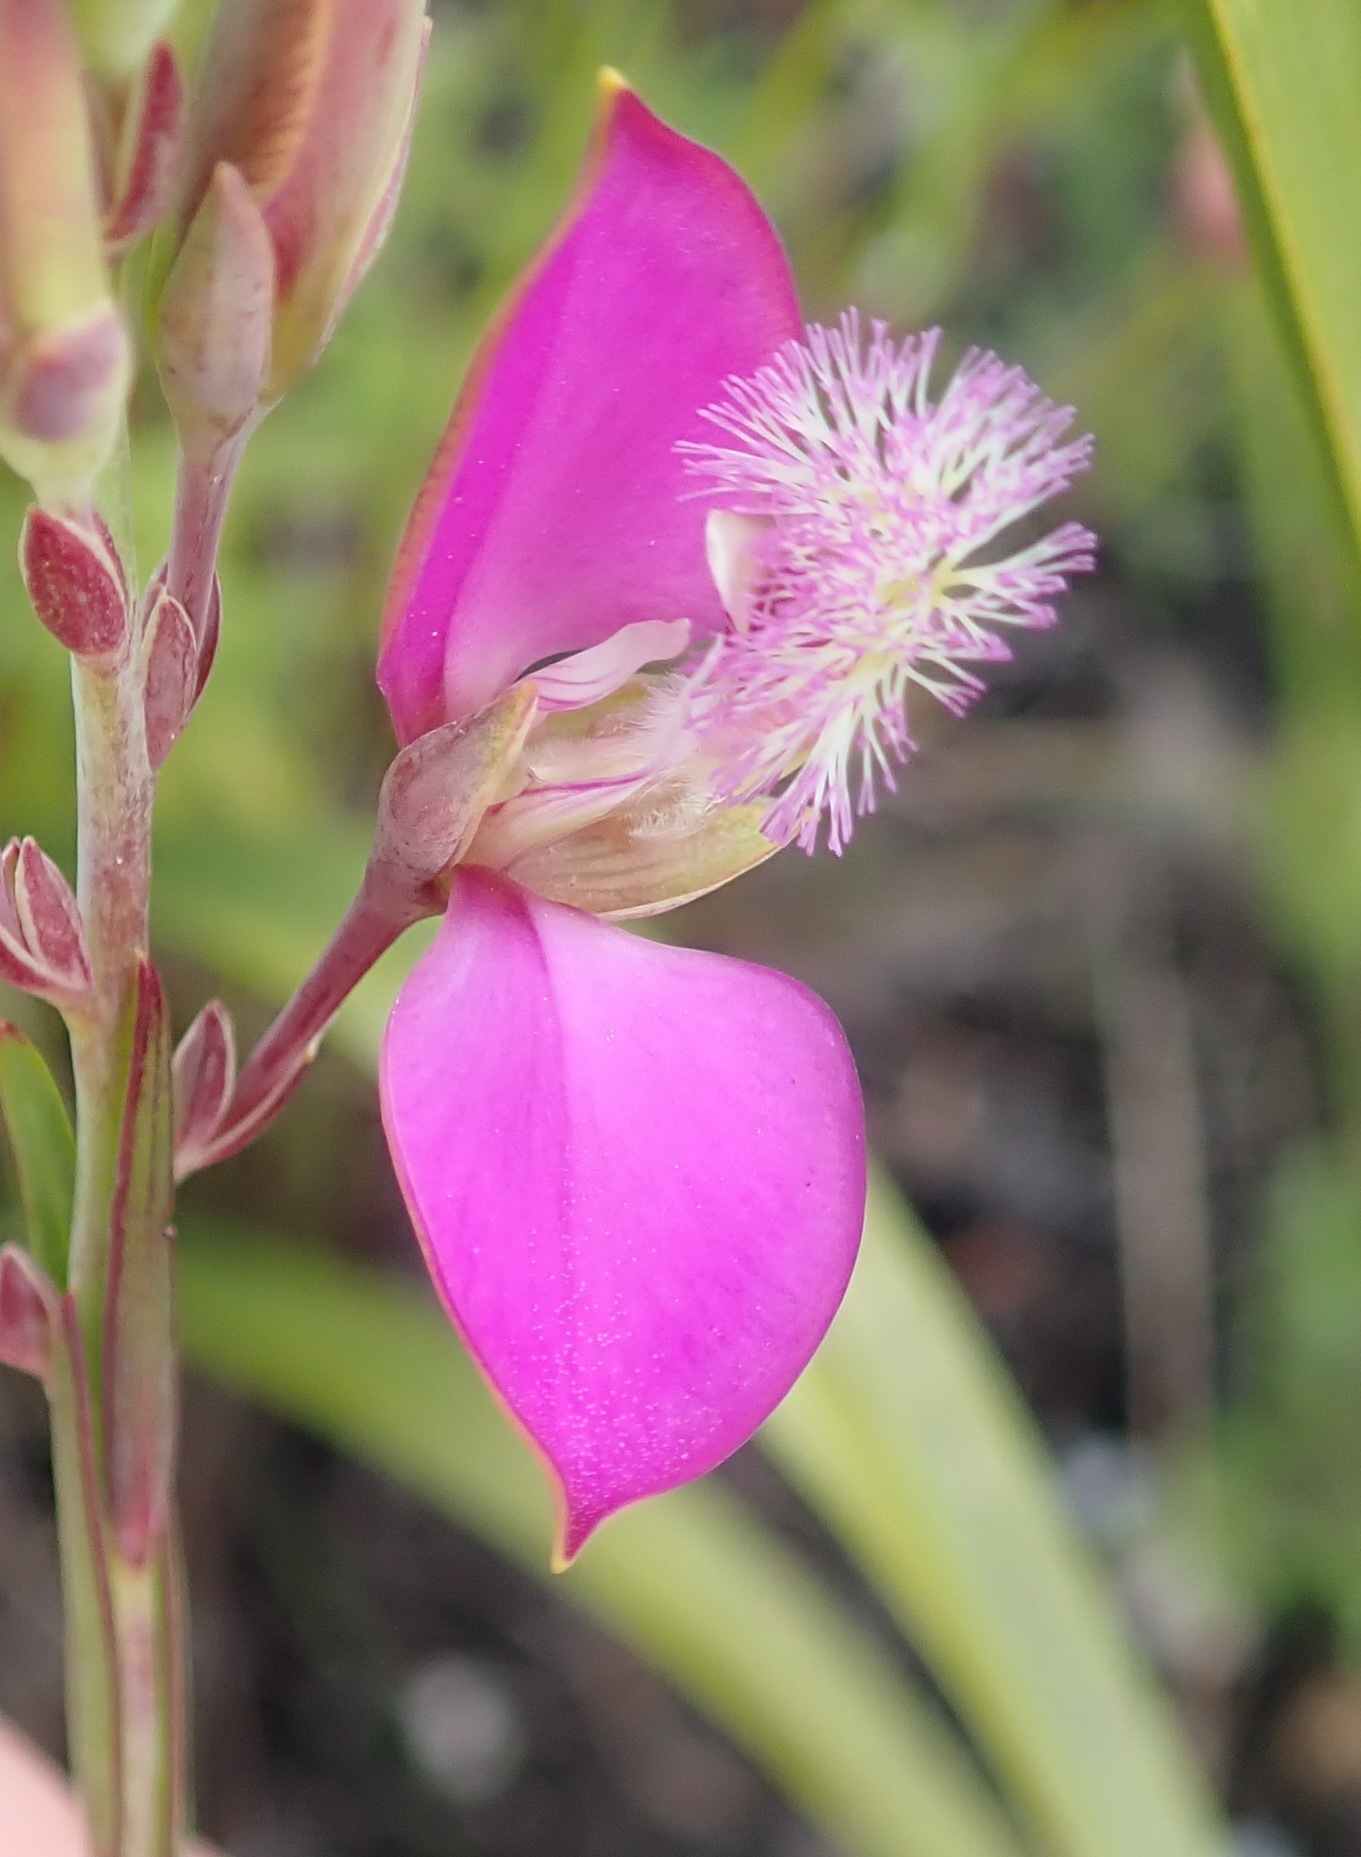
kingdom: Plantae
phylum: Tracheophyta
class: Magnoliopsida
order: Fabales
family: Polygalaceae
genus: Polygala
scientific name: Polygala bracteolata
